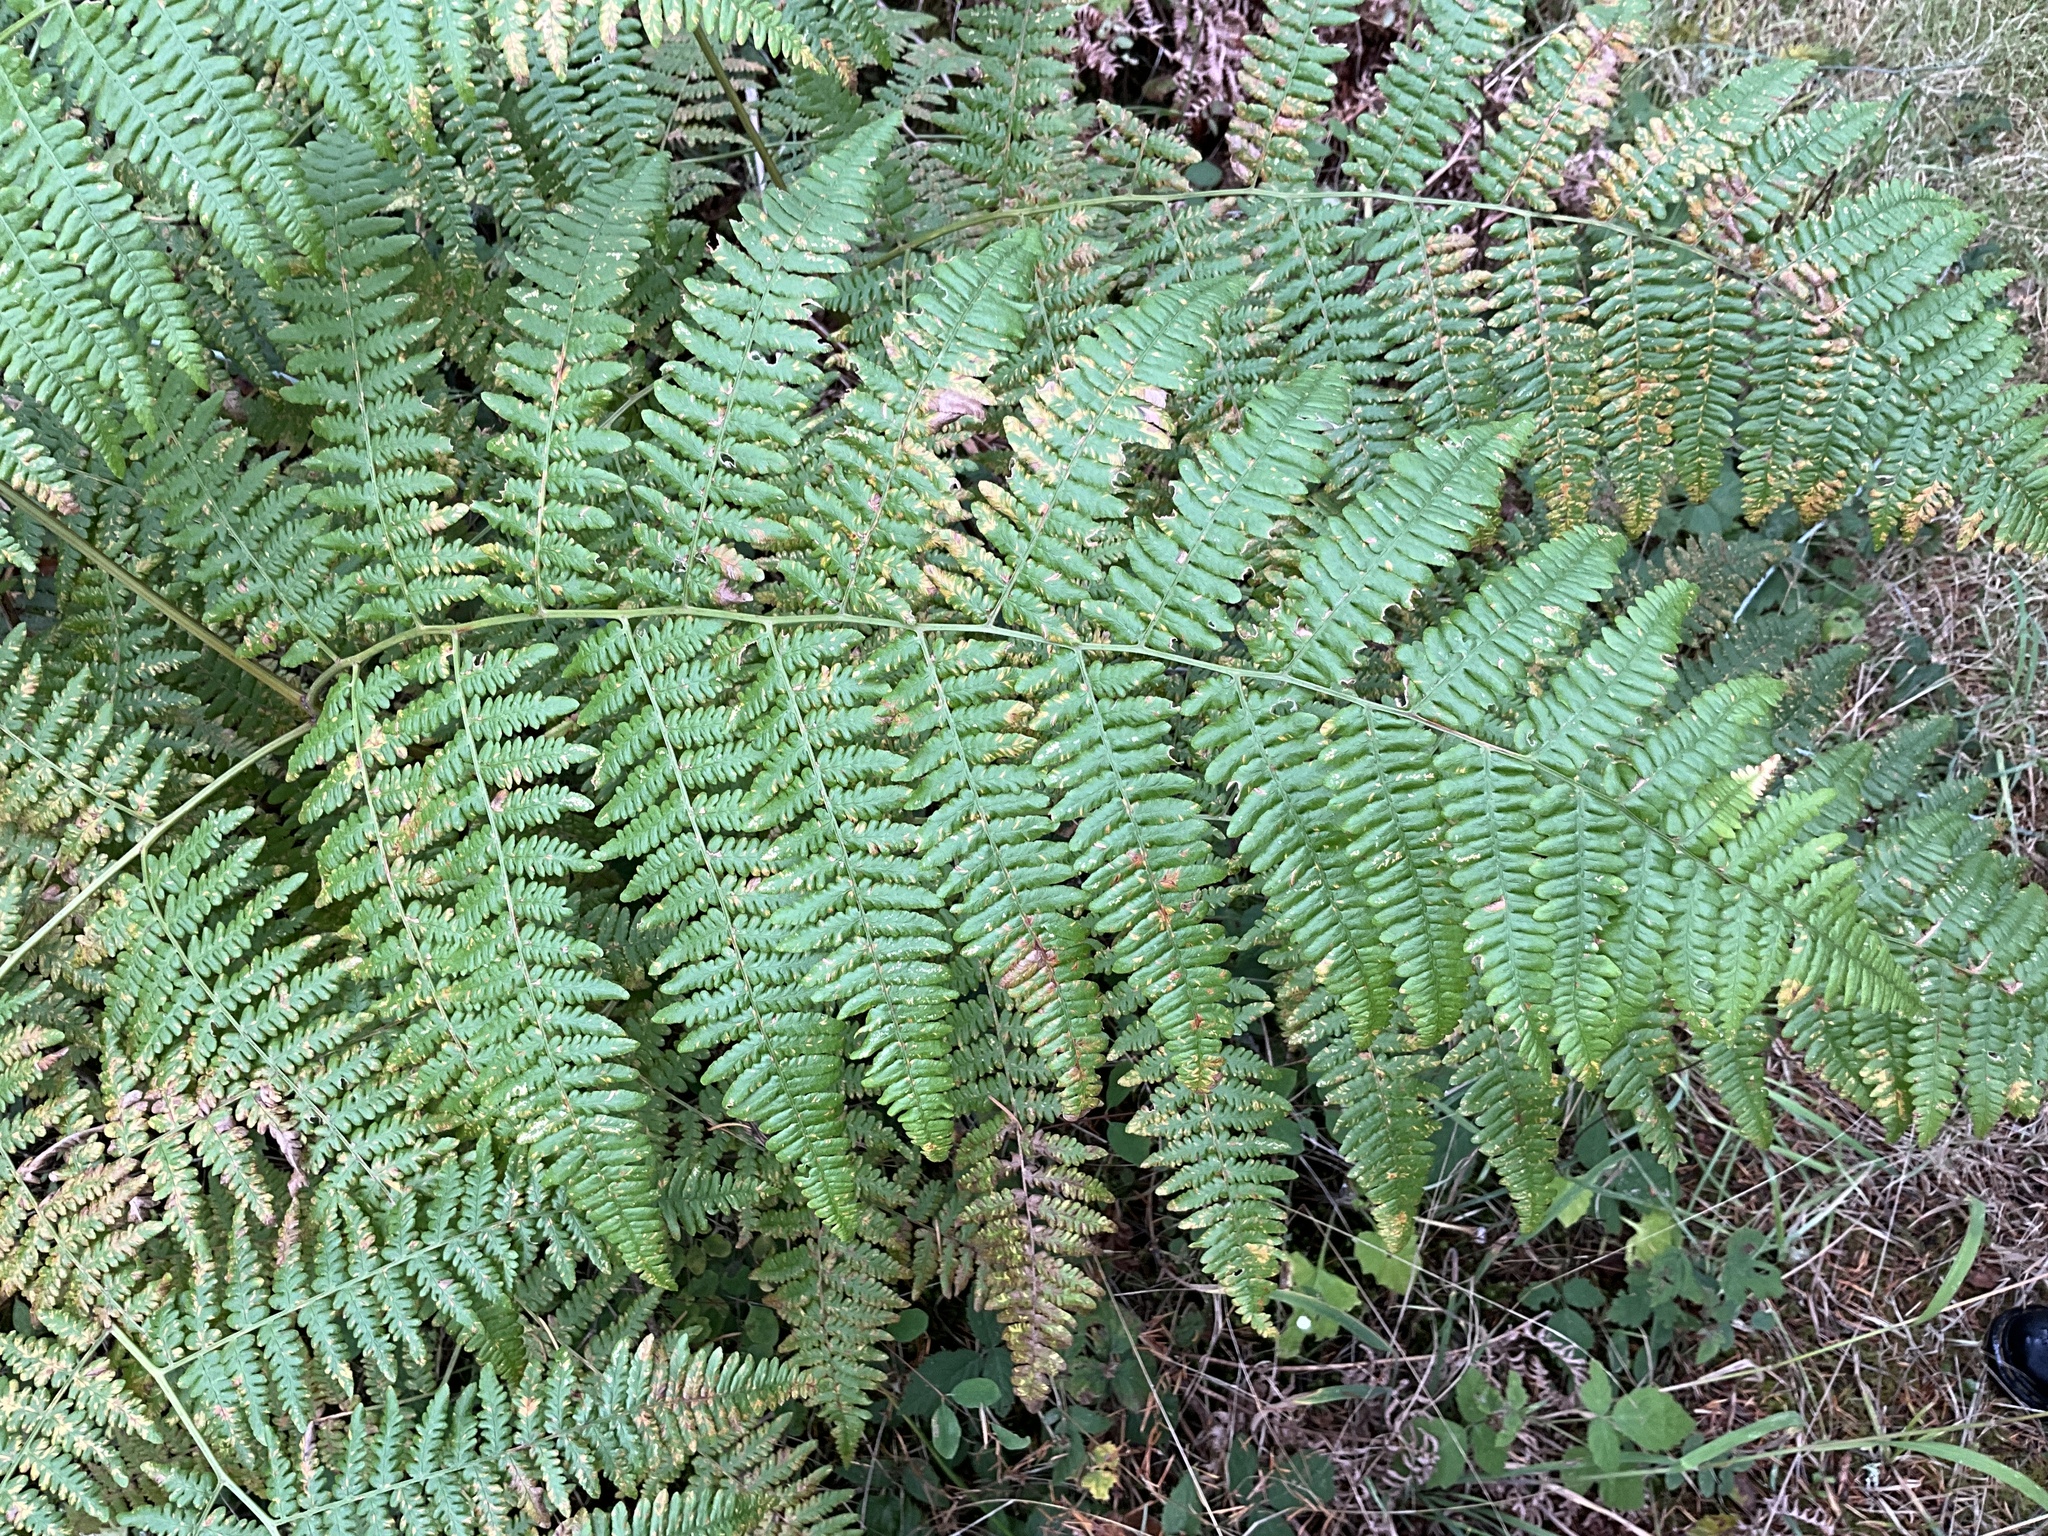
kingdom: Plantae
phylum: Tracheophyta
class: Polypodiopsida
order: Polypodiales
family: Dennstaedtiaceae
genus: Pteridium
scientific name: Pteridium aquilinum
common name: Bracken
